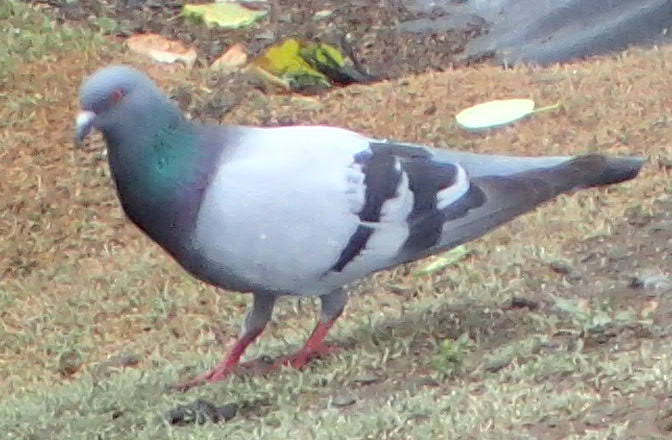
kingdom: Animalia
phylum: Chordata
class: Aves
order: Columbiformes
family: Columbidae
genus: Columba
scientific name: Columba livia
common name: Rock pigeon
